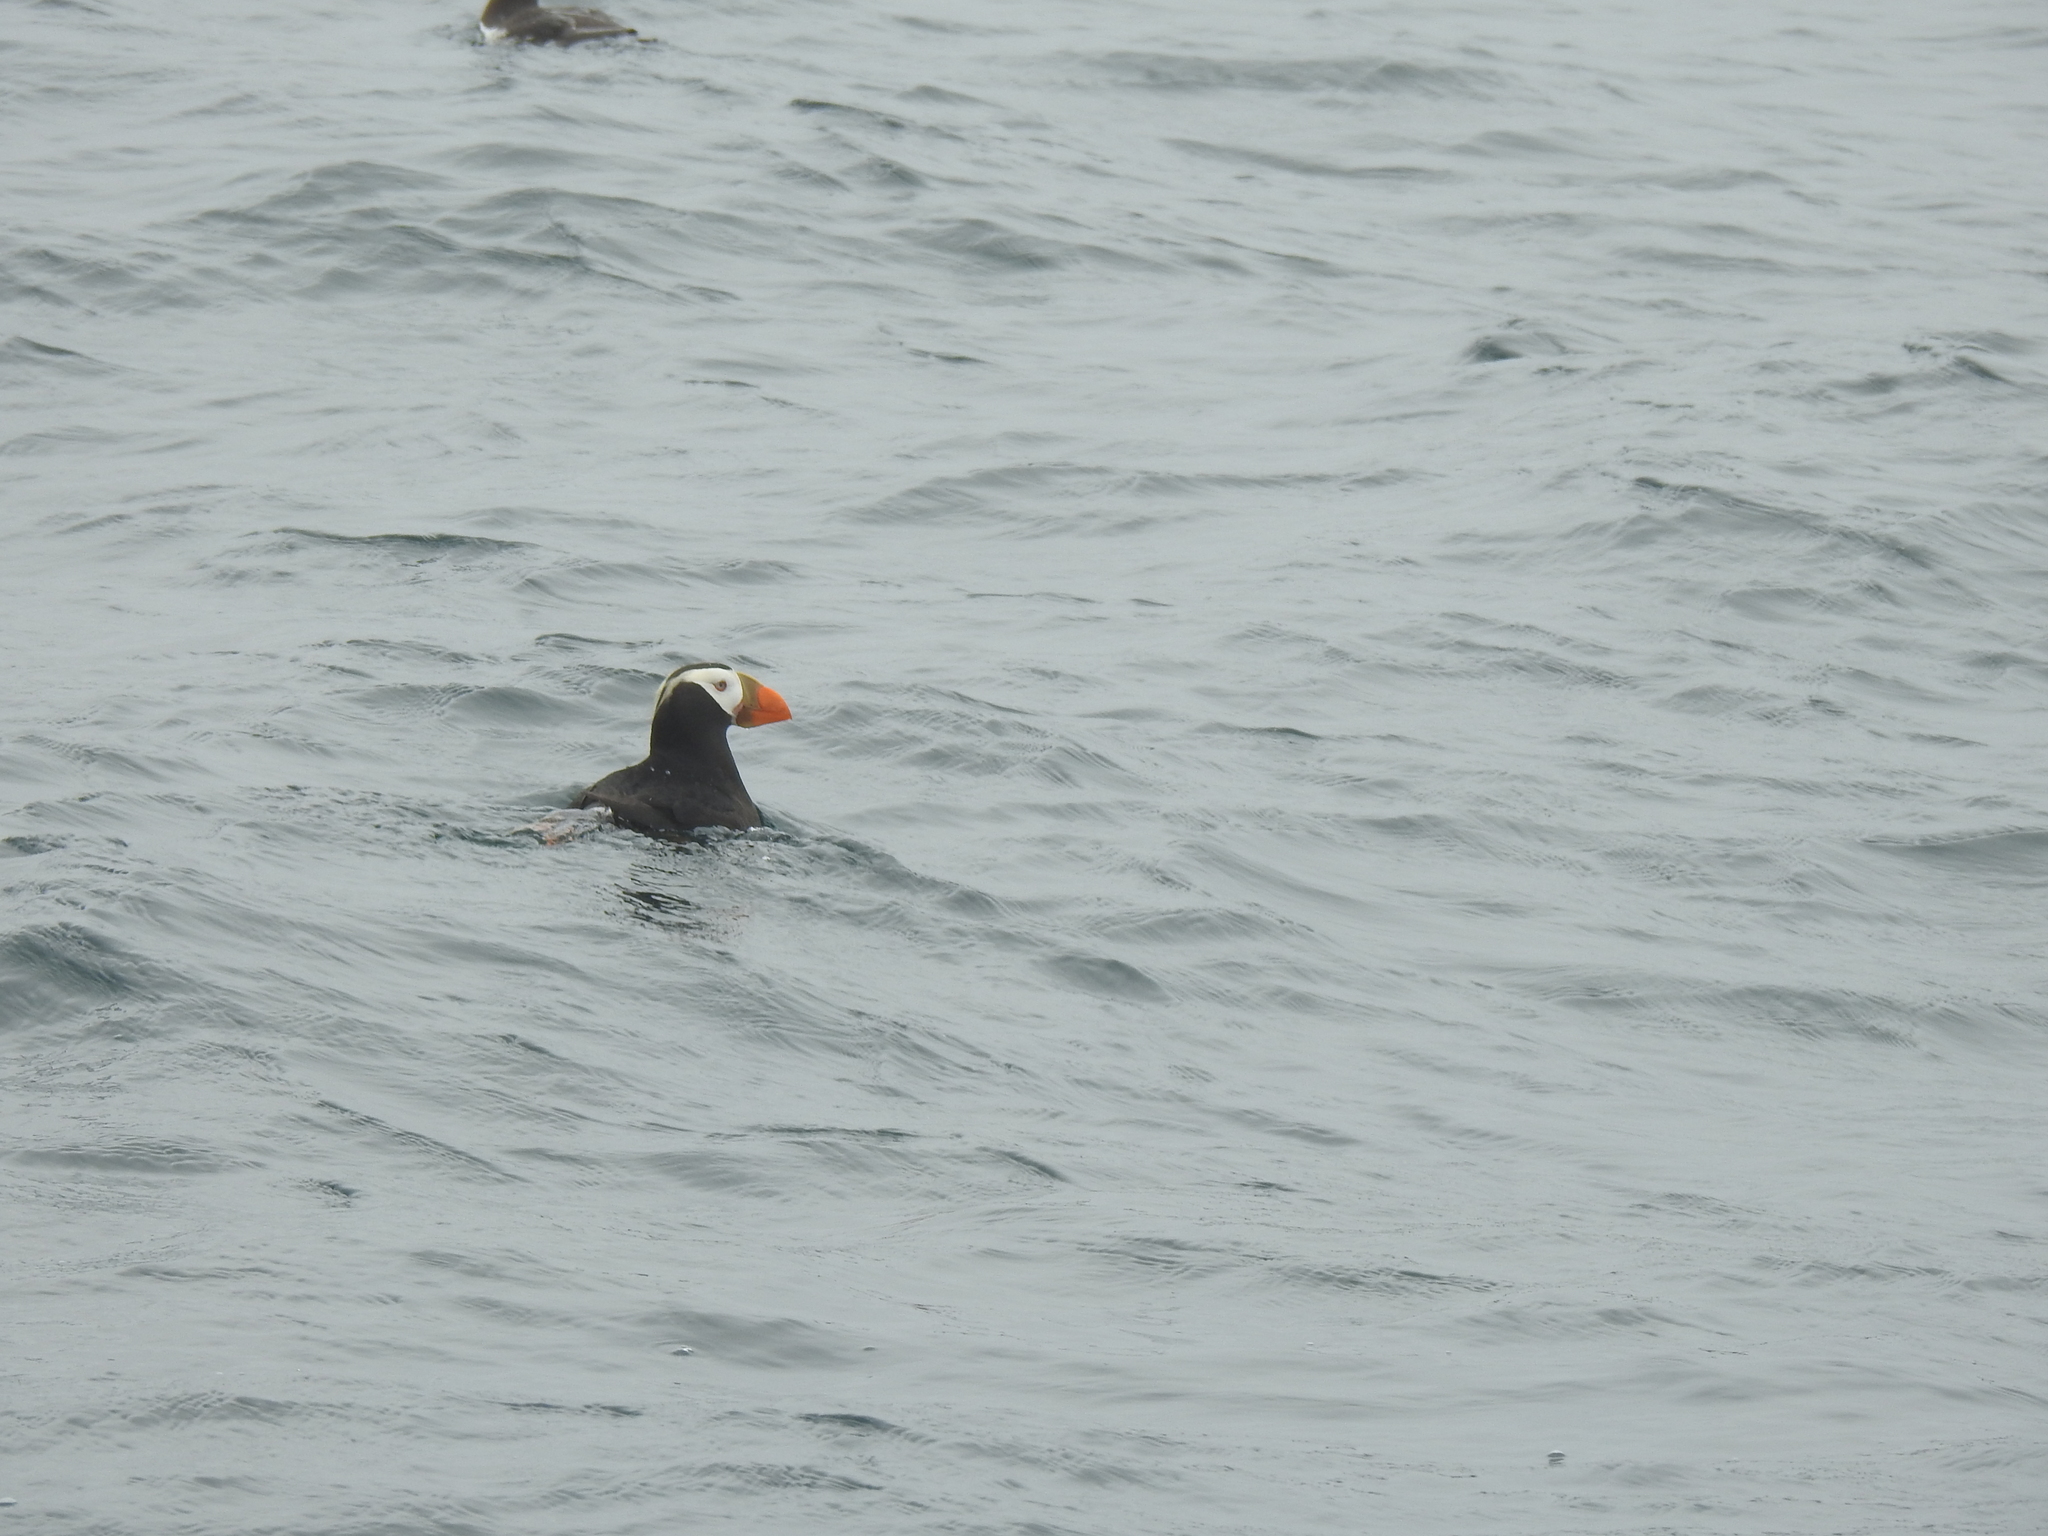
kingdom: Animalia
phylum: Chordata
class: Aves
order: Charadriiformes
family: Alcidae
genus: Fratercula
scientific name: Fratercula cirrhata
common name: Tufted puffin
